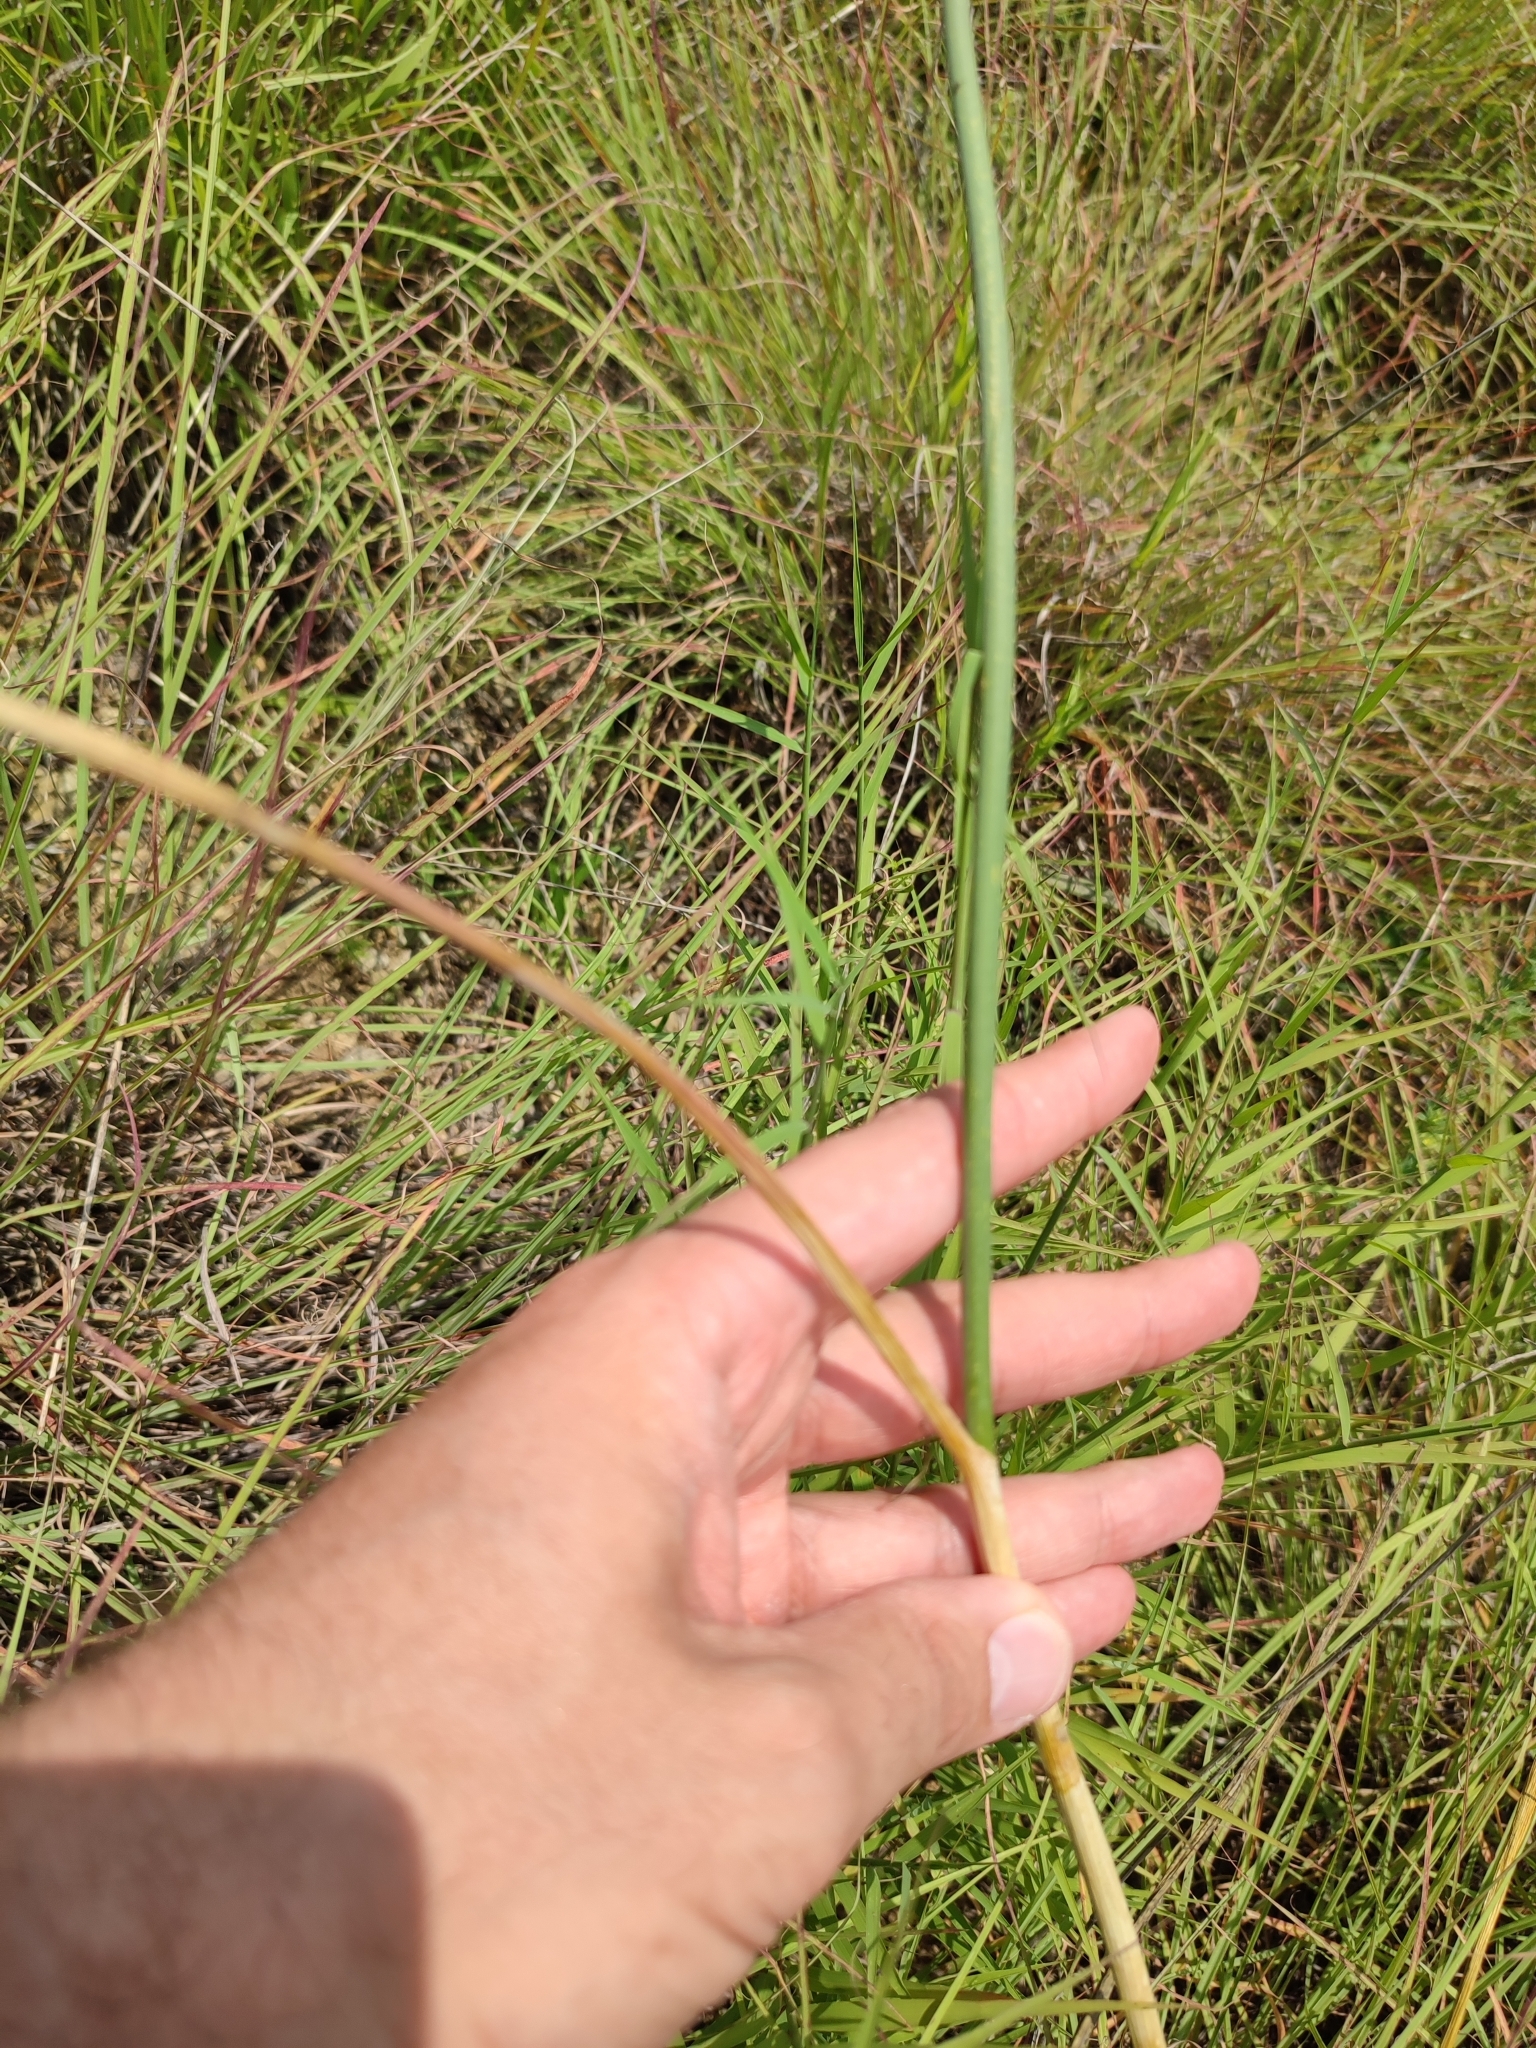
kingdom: Plantae
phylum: Tracheophyta
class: Liliopsida
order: Asparagales
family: Amaryllidaceae
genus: Allium
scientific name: Allium sphaerocephalon
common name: Round-headed leek
